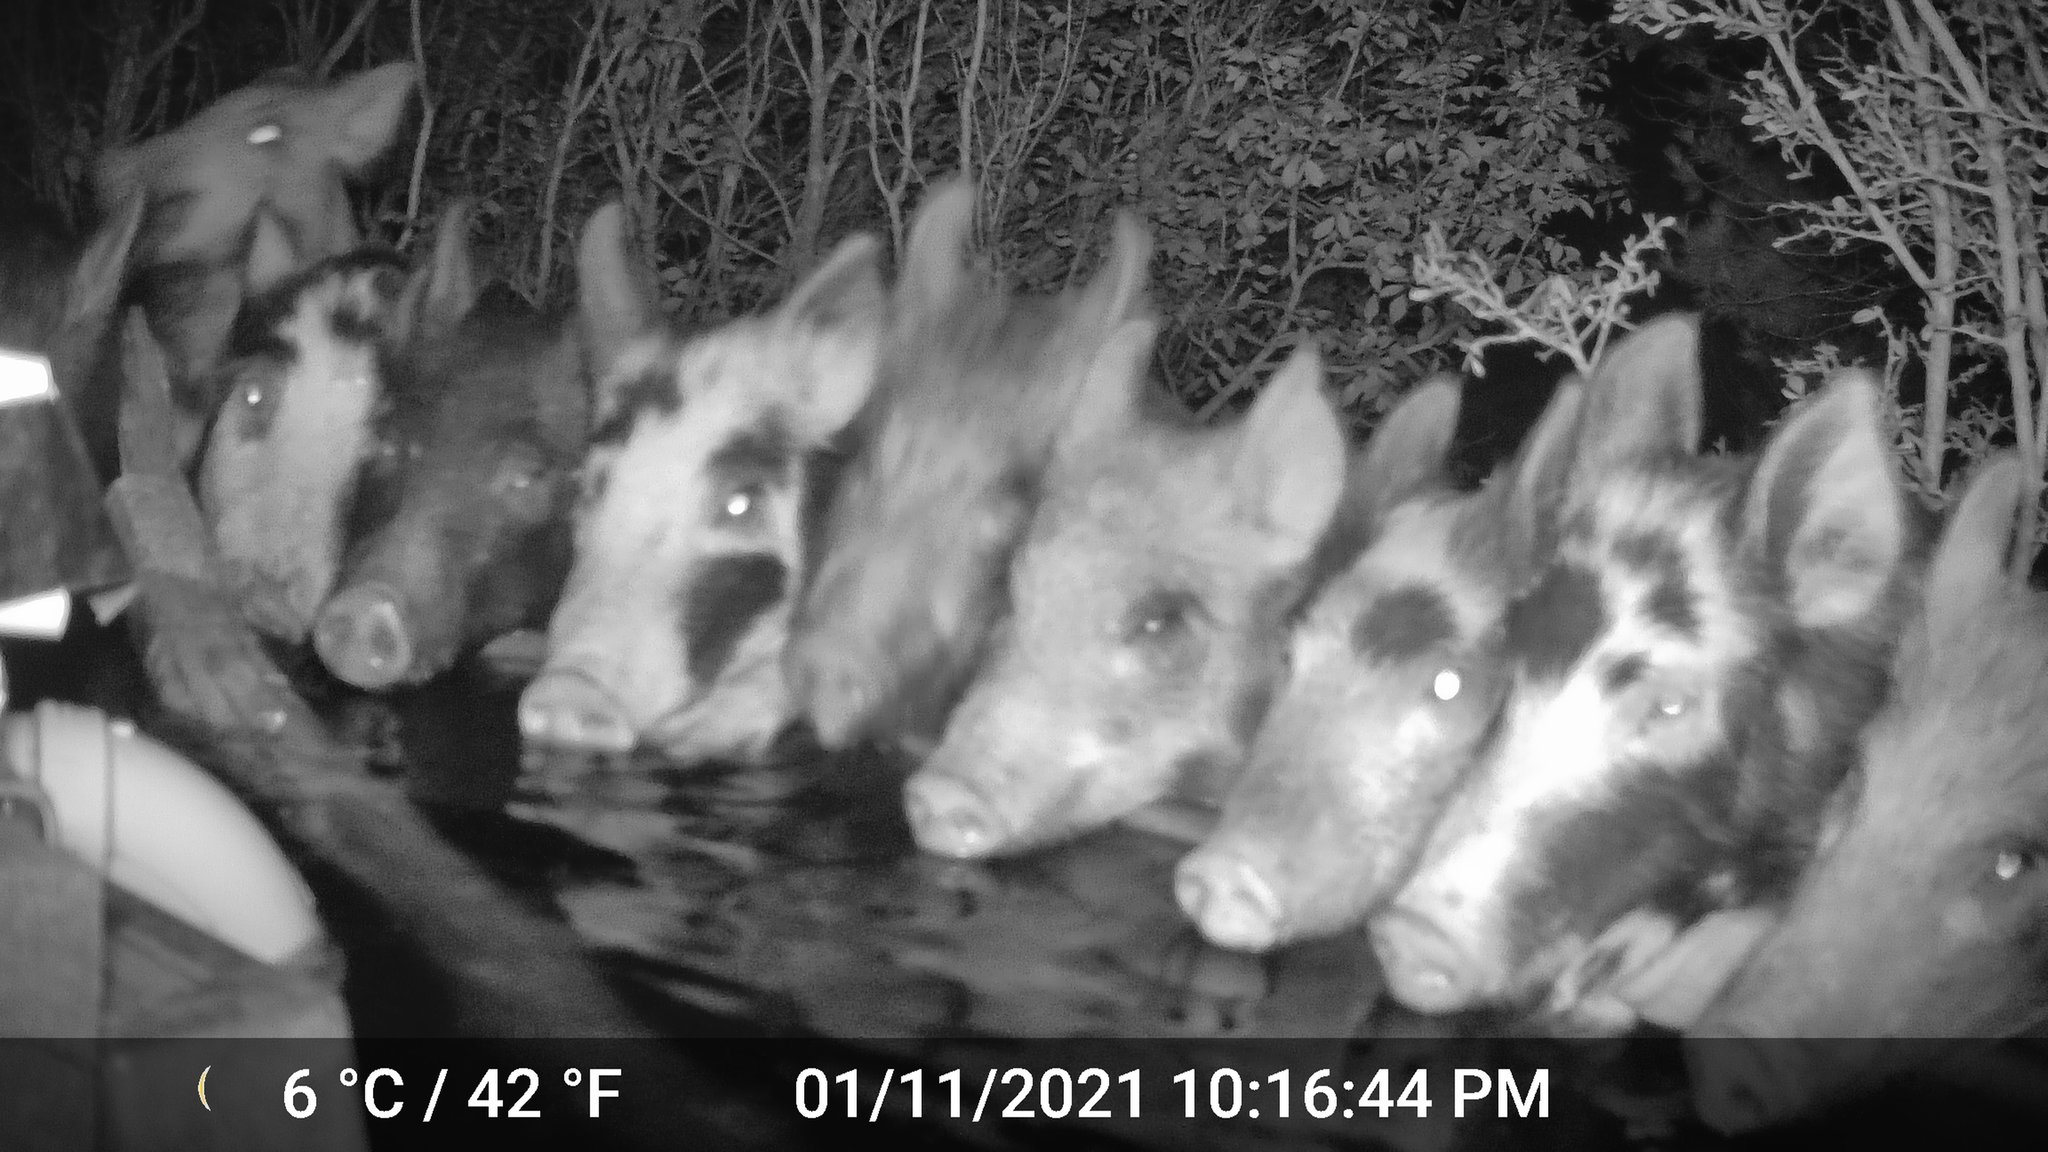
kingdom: Animalia
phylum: Chordata
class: Mammalia
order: Artiodactyla
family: Suidae
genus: Sus
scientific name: Sus scrofa
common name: Wild boar
